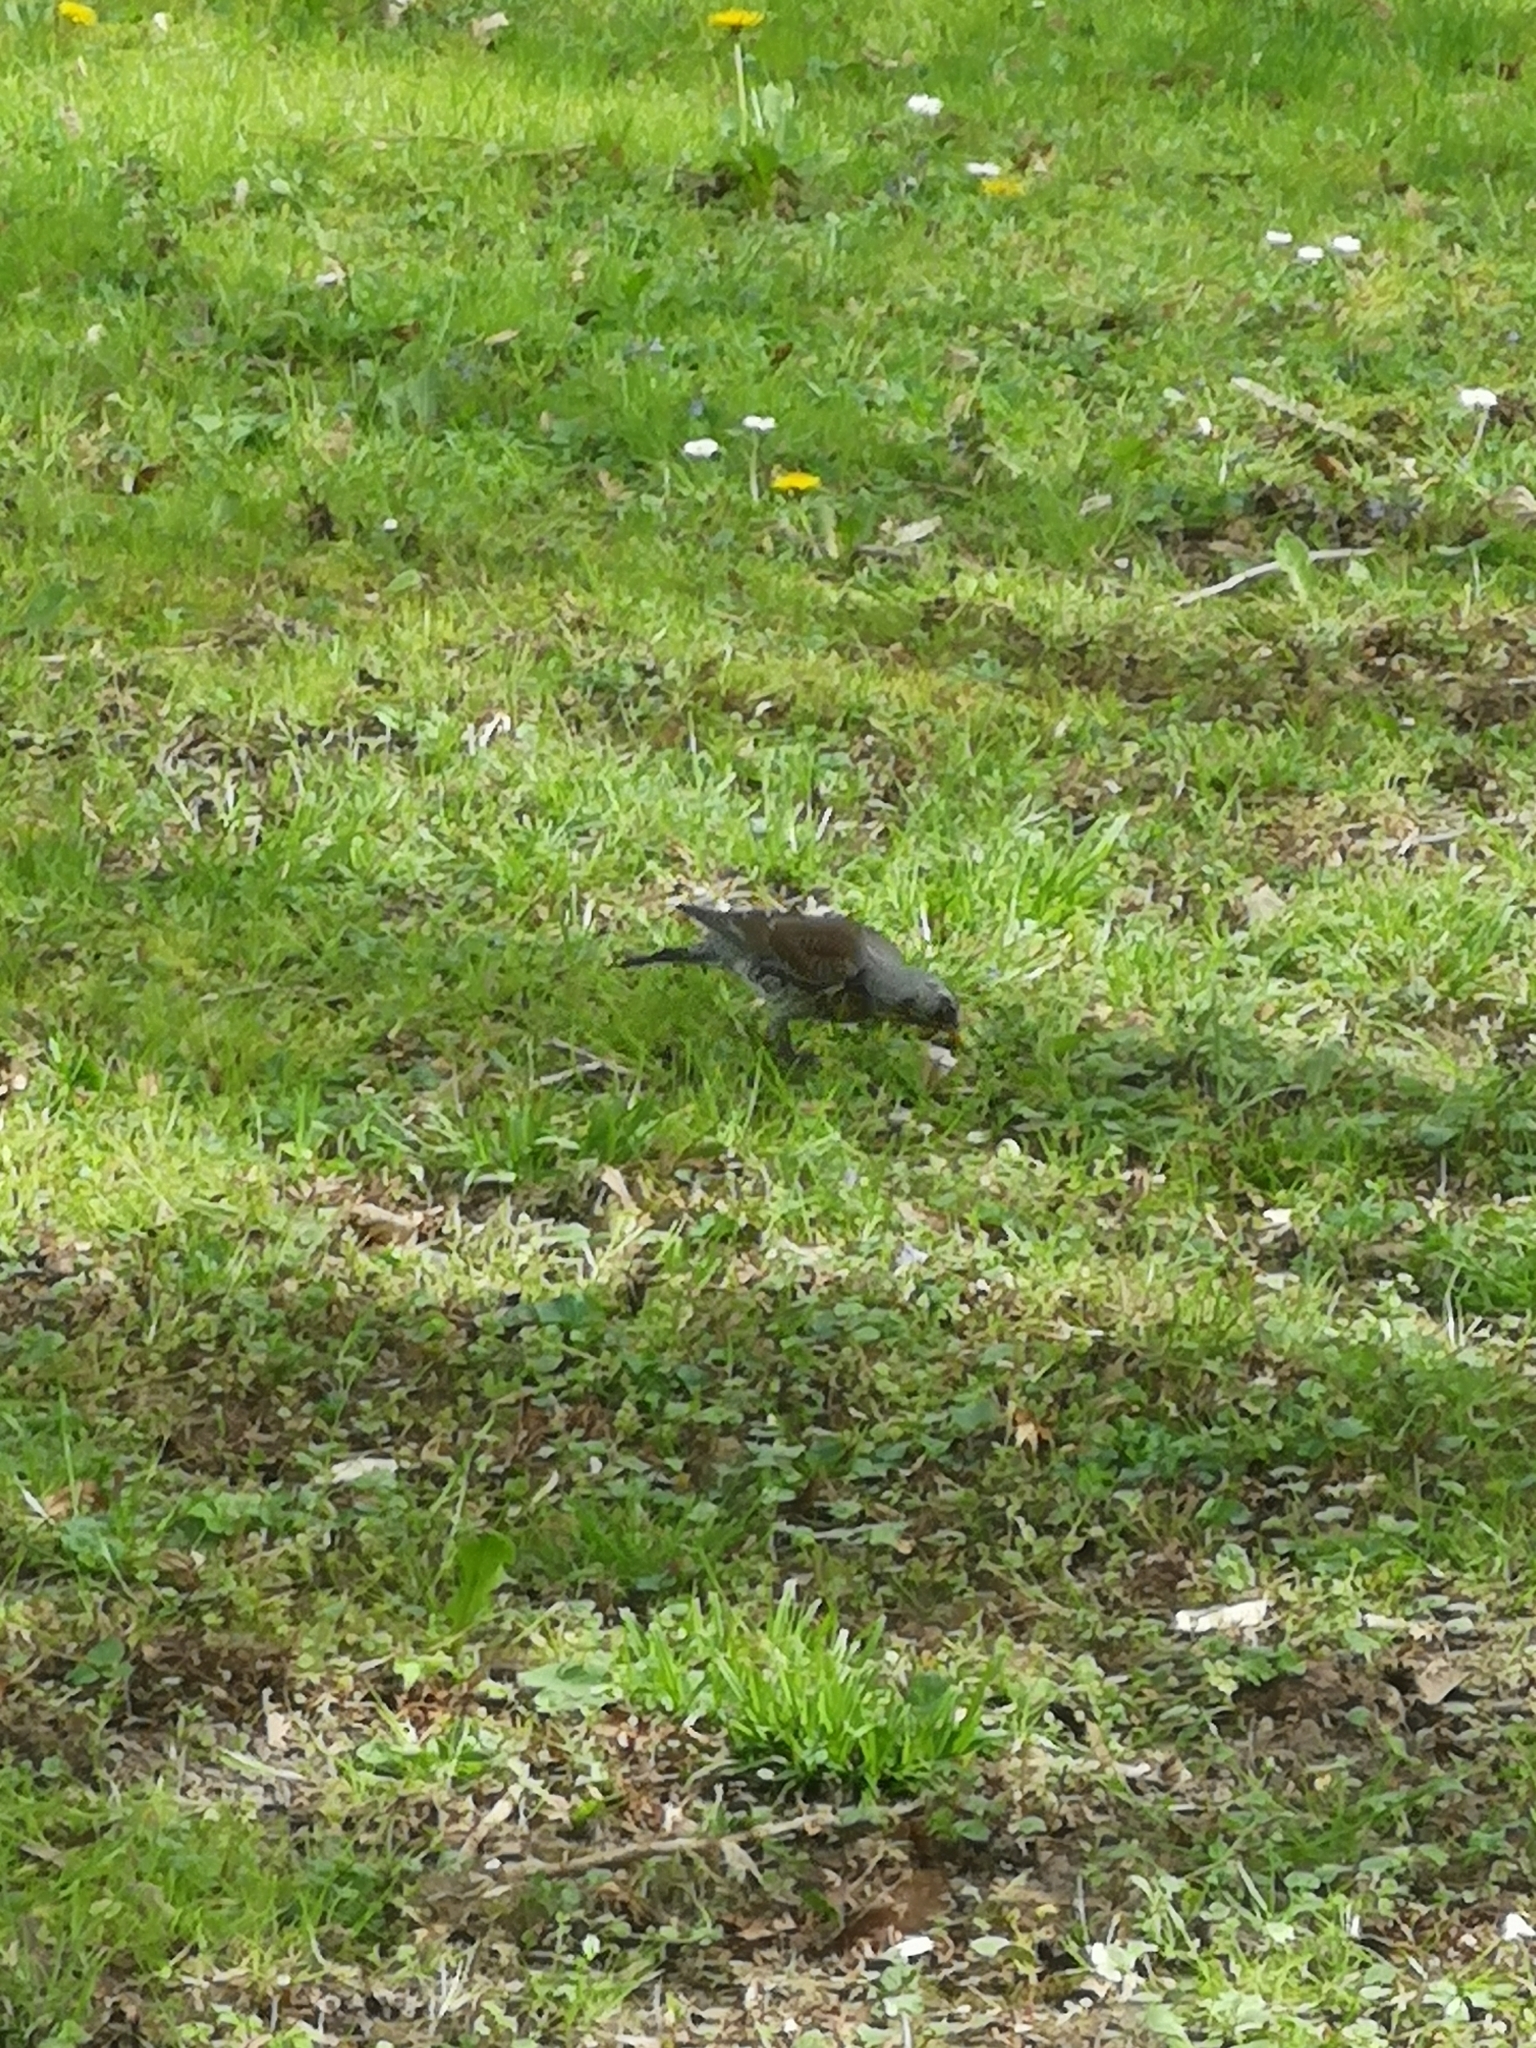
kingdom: Animalia
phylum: Chordata
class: Aves
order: Passeriformes
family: Turdidae
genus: Turdus
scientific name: Turdus pilaris
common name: Fieldfare
